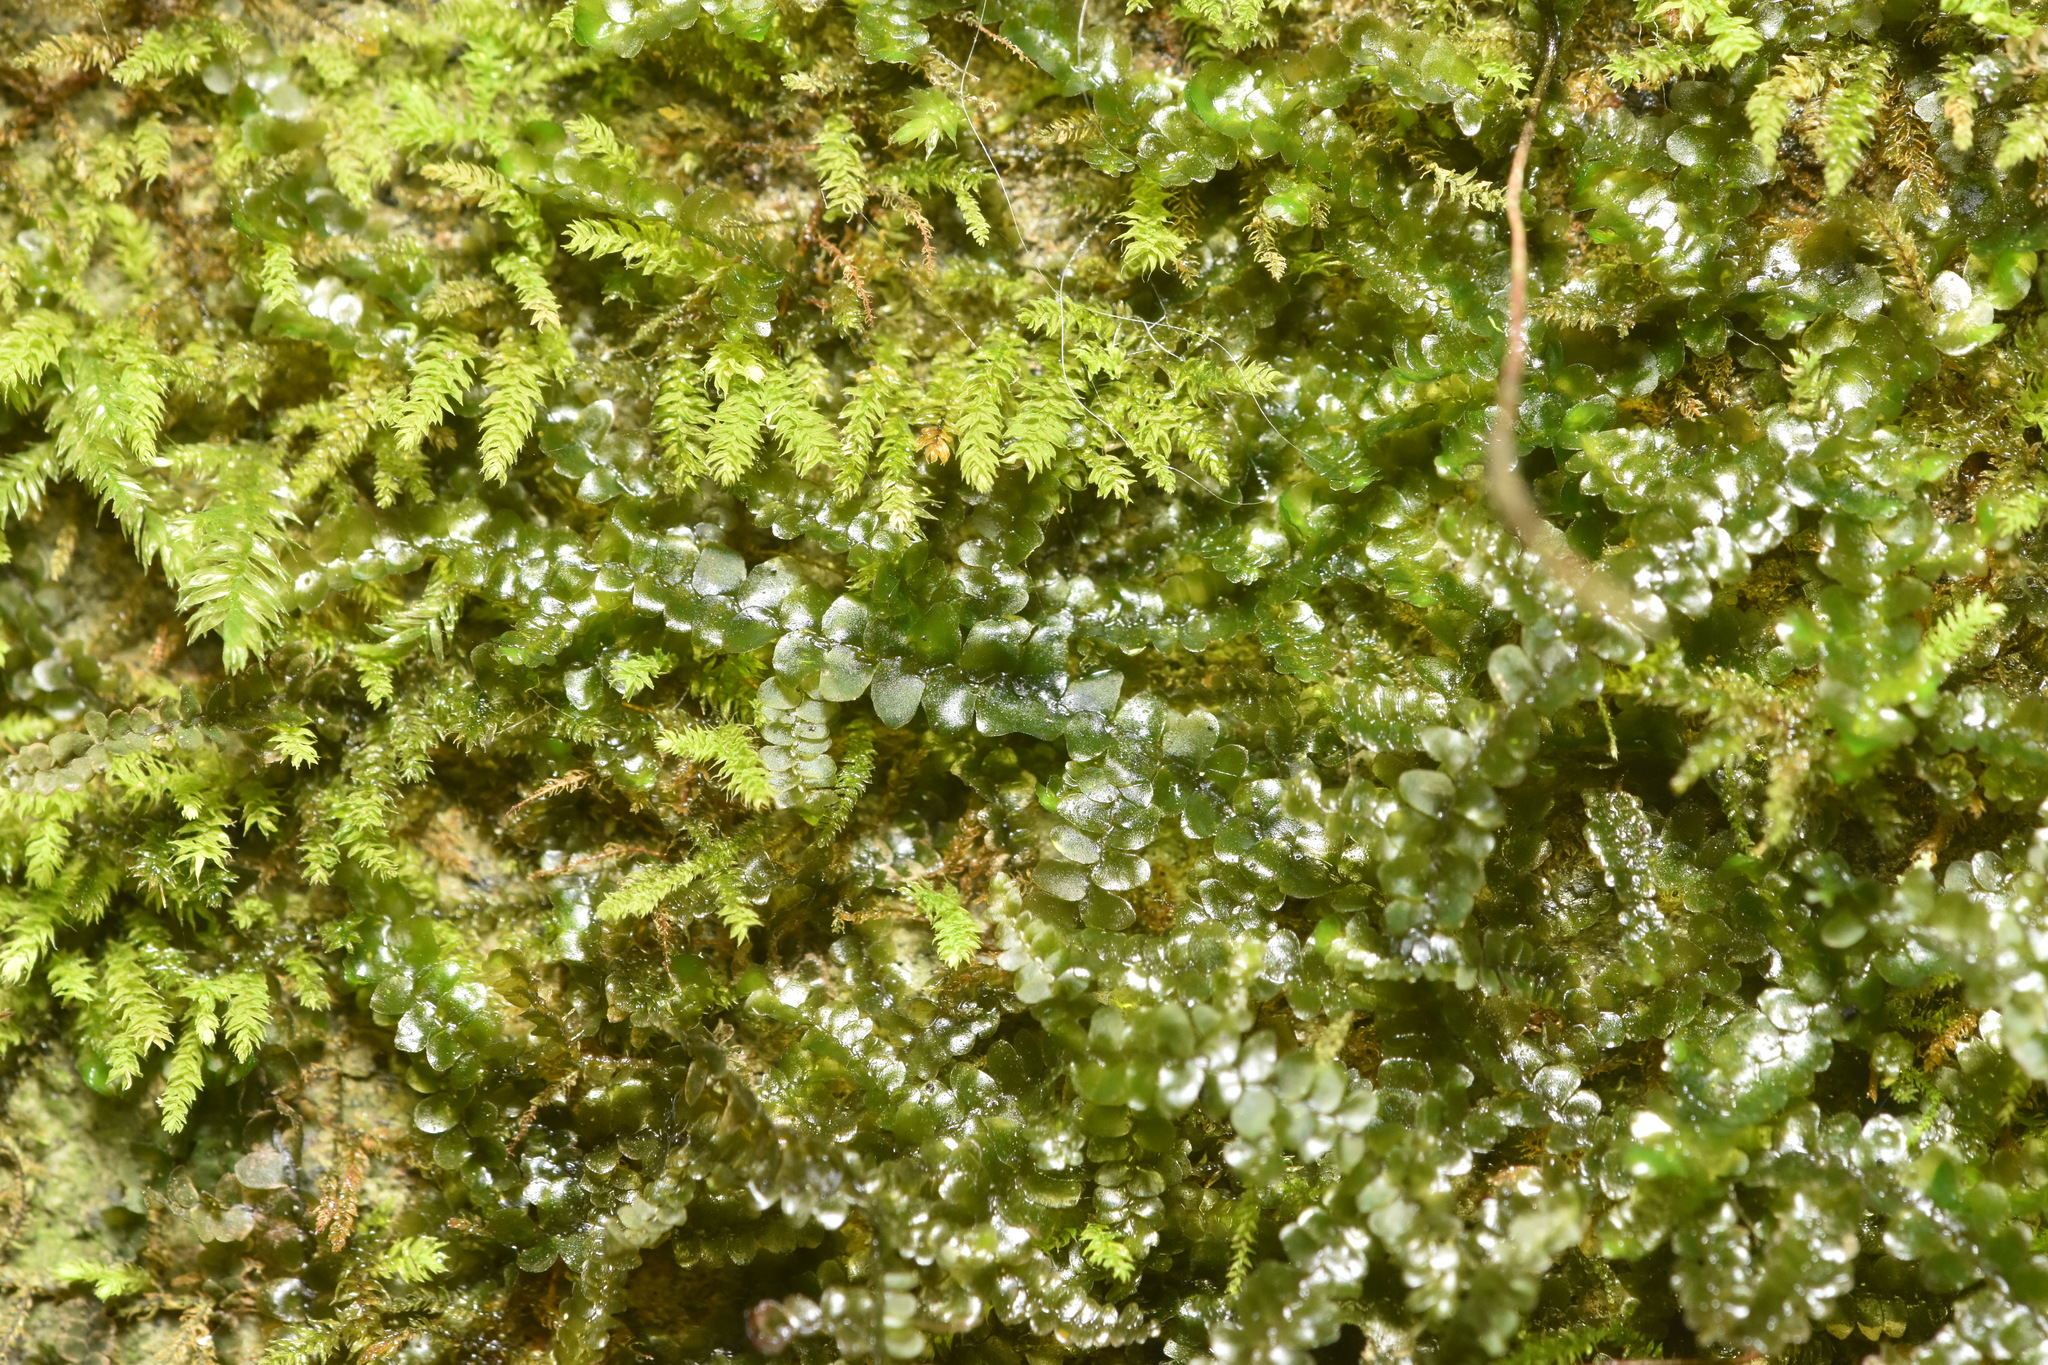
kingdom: Plantae
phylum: Marchantiophyta
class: Jungermanniopsida
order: Porellales
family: Porellaceae
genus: Porella
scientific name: Porella roellii
